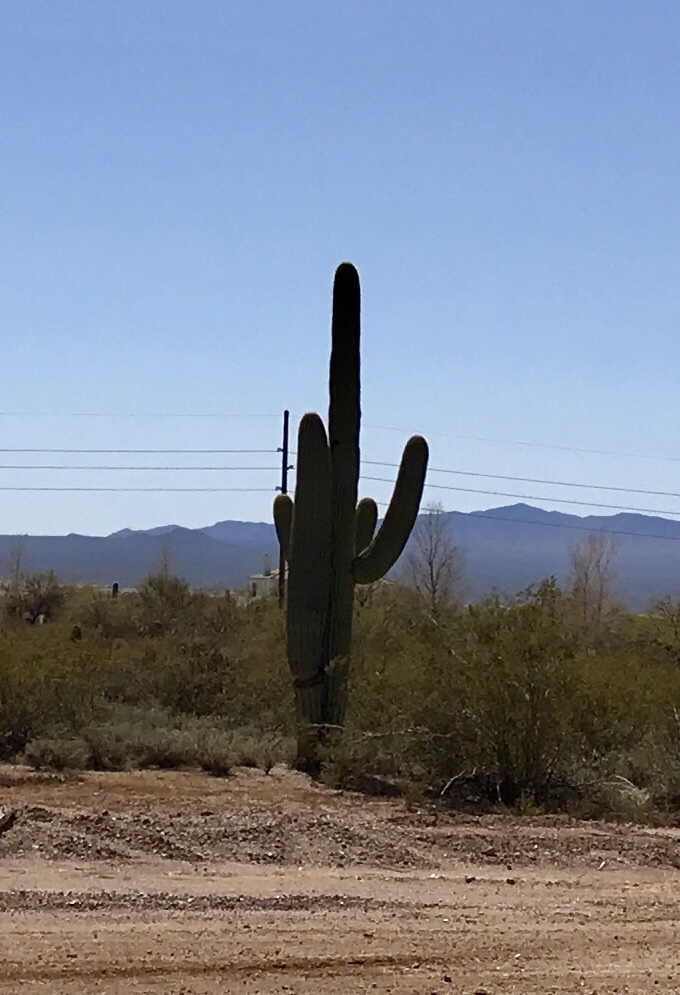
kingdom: Plantae
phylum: Tracheophyta
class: Magnoliopsida
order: Caryophyllales
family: Cactaceae
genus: Carnegiea
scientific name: Carnegiea gigantea
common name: Saguaro
